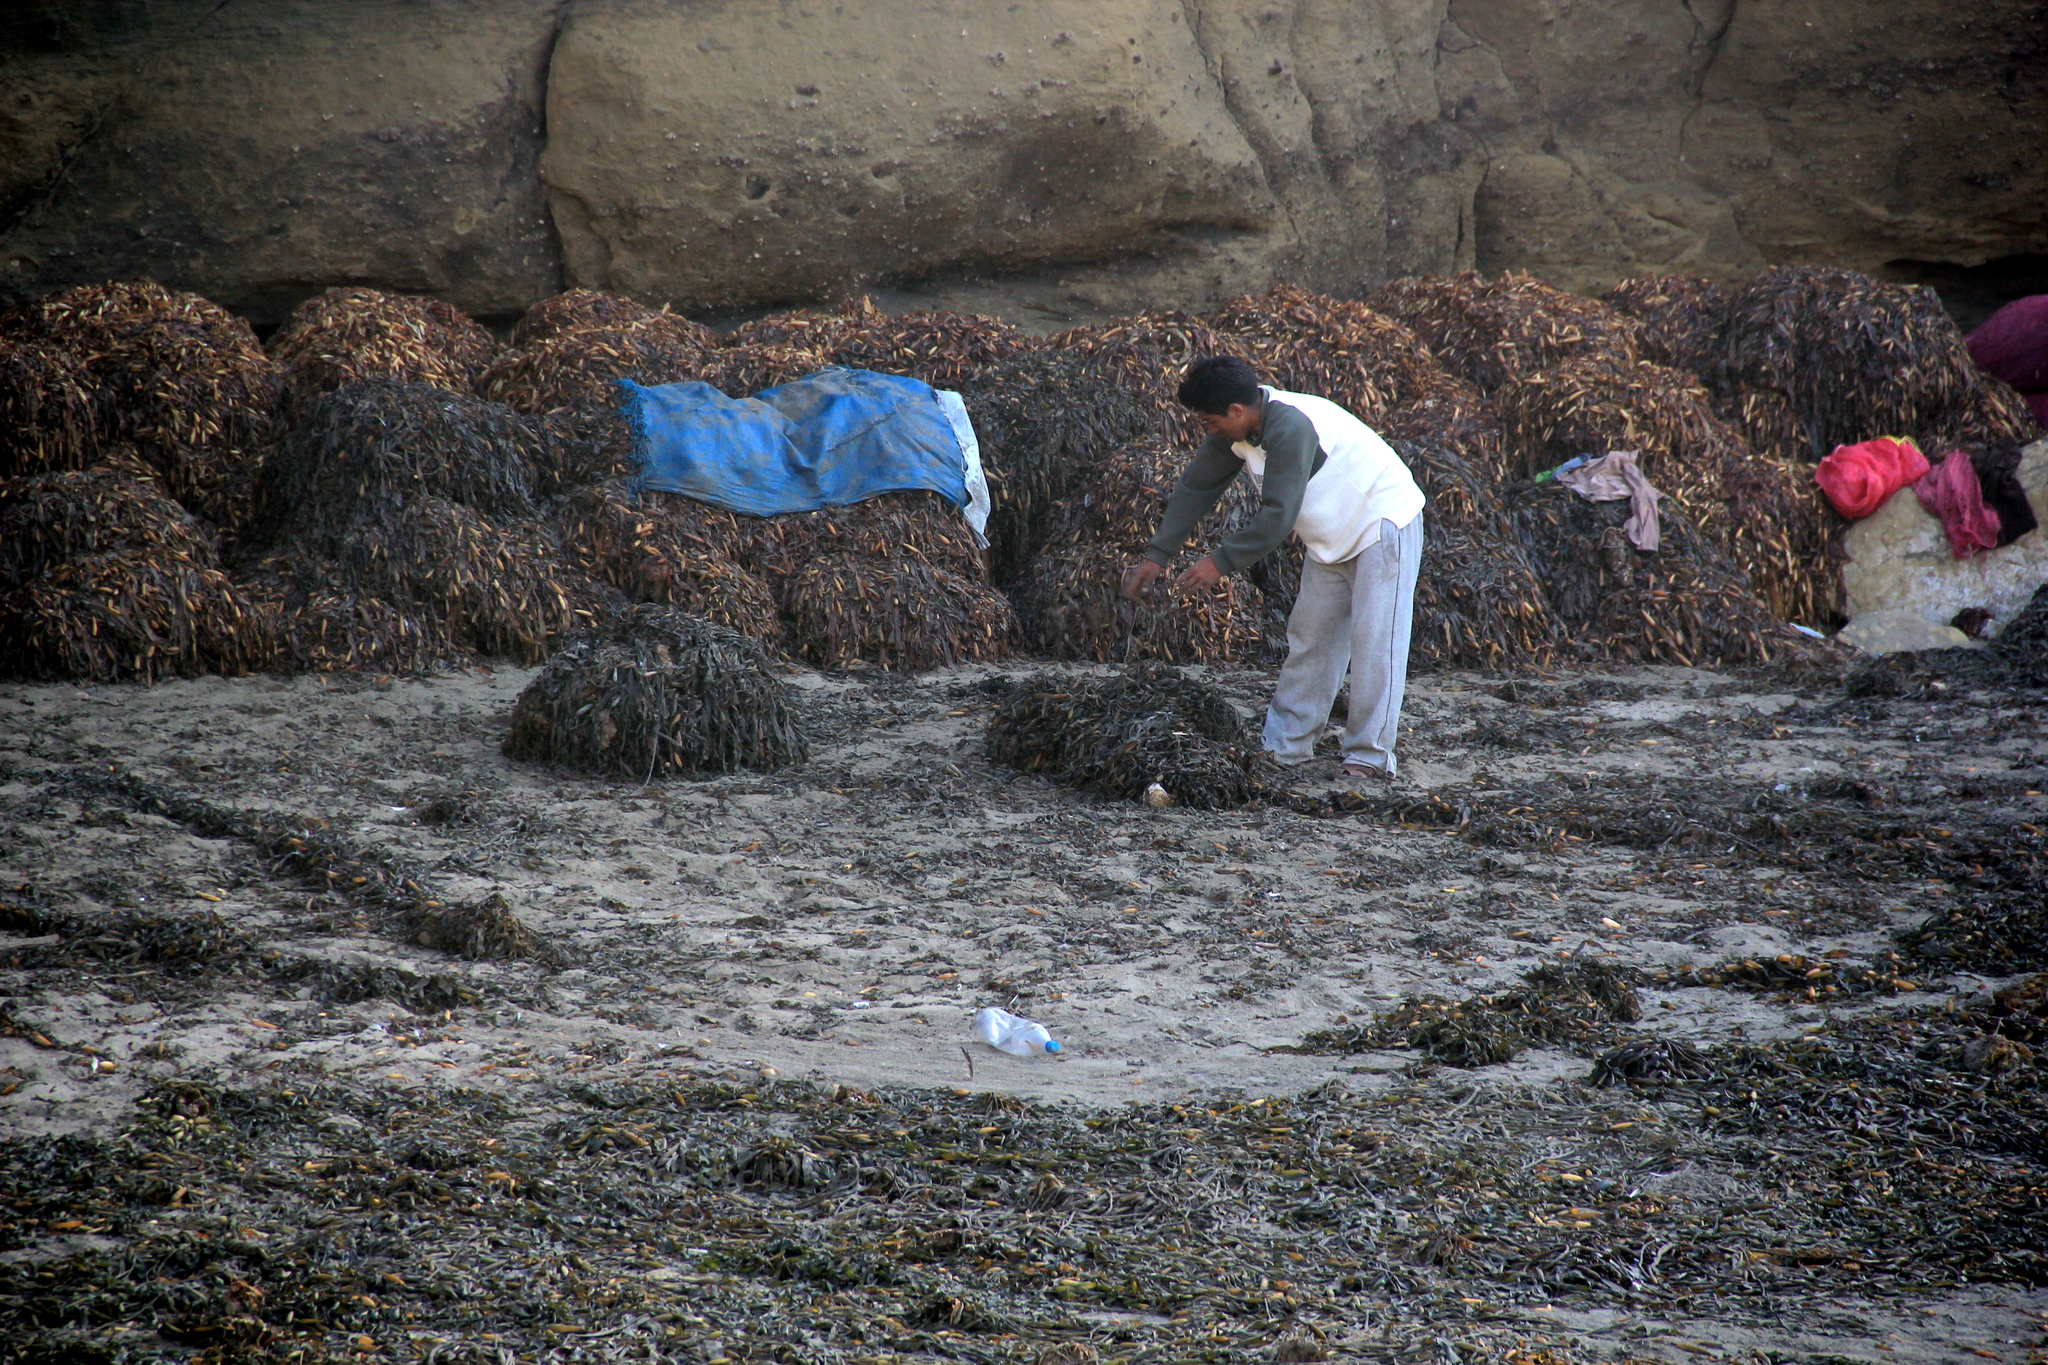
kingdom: Chromista
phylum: Ochrophyta
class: Phaeophyceae
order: Laminariales
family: Laminariaceae
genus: Macrocystis
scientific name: Macrocystis pyrifera
